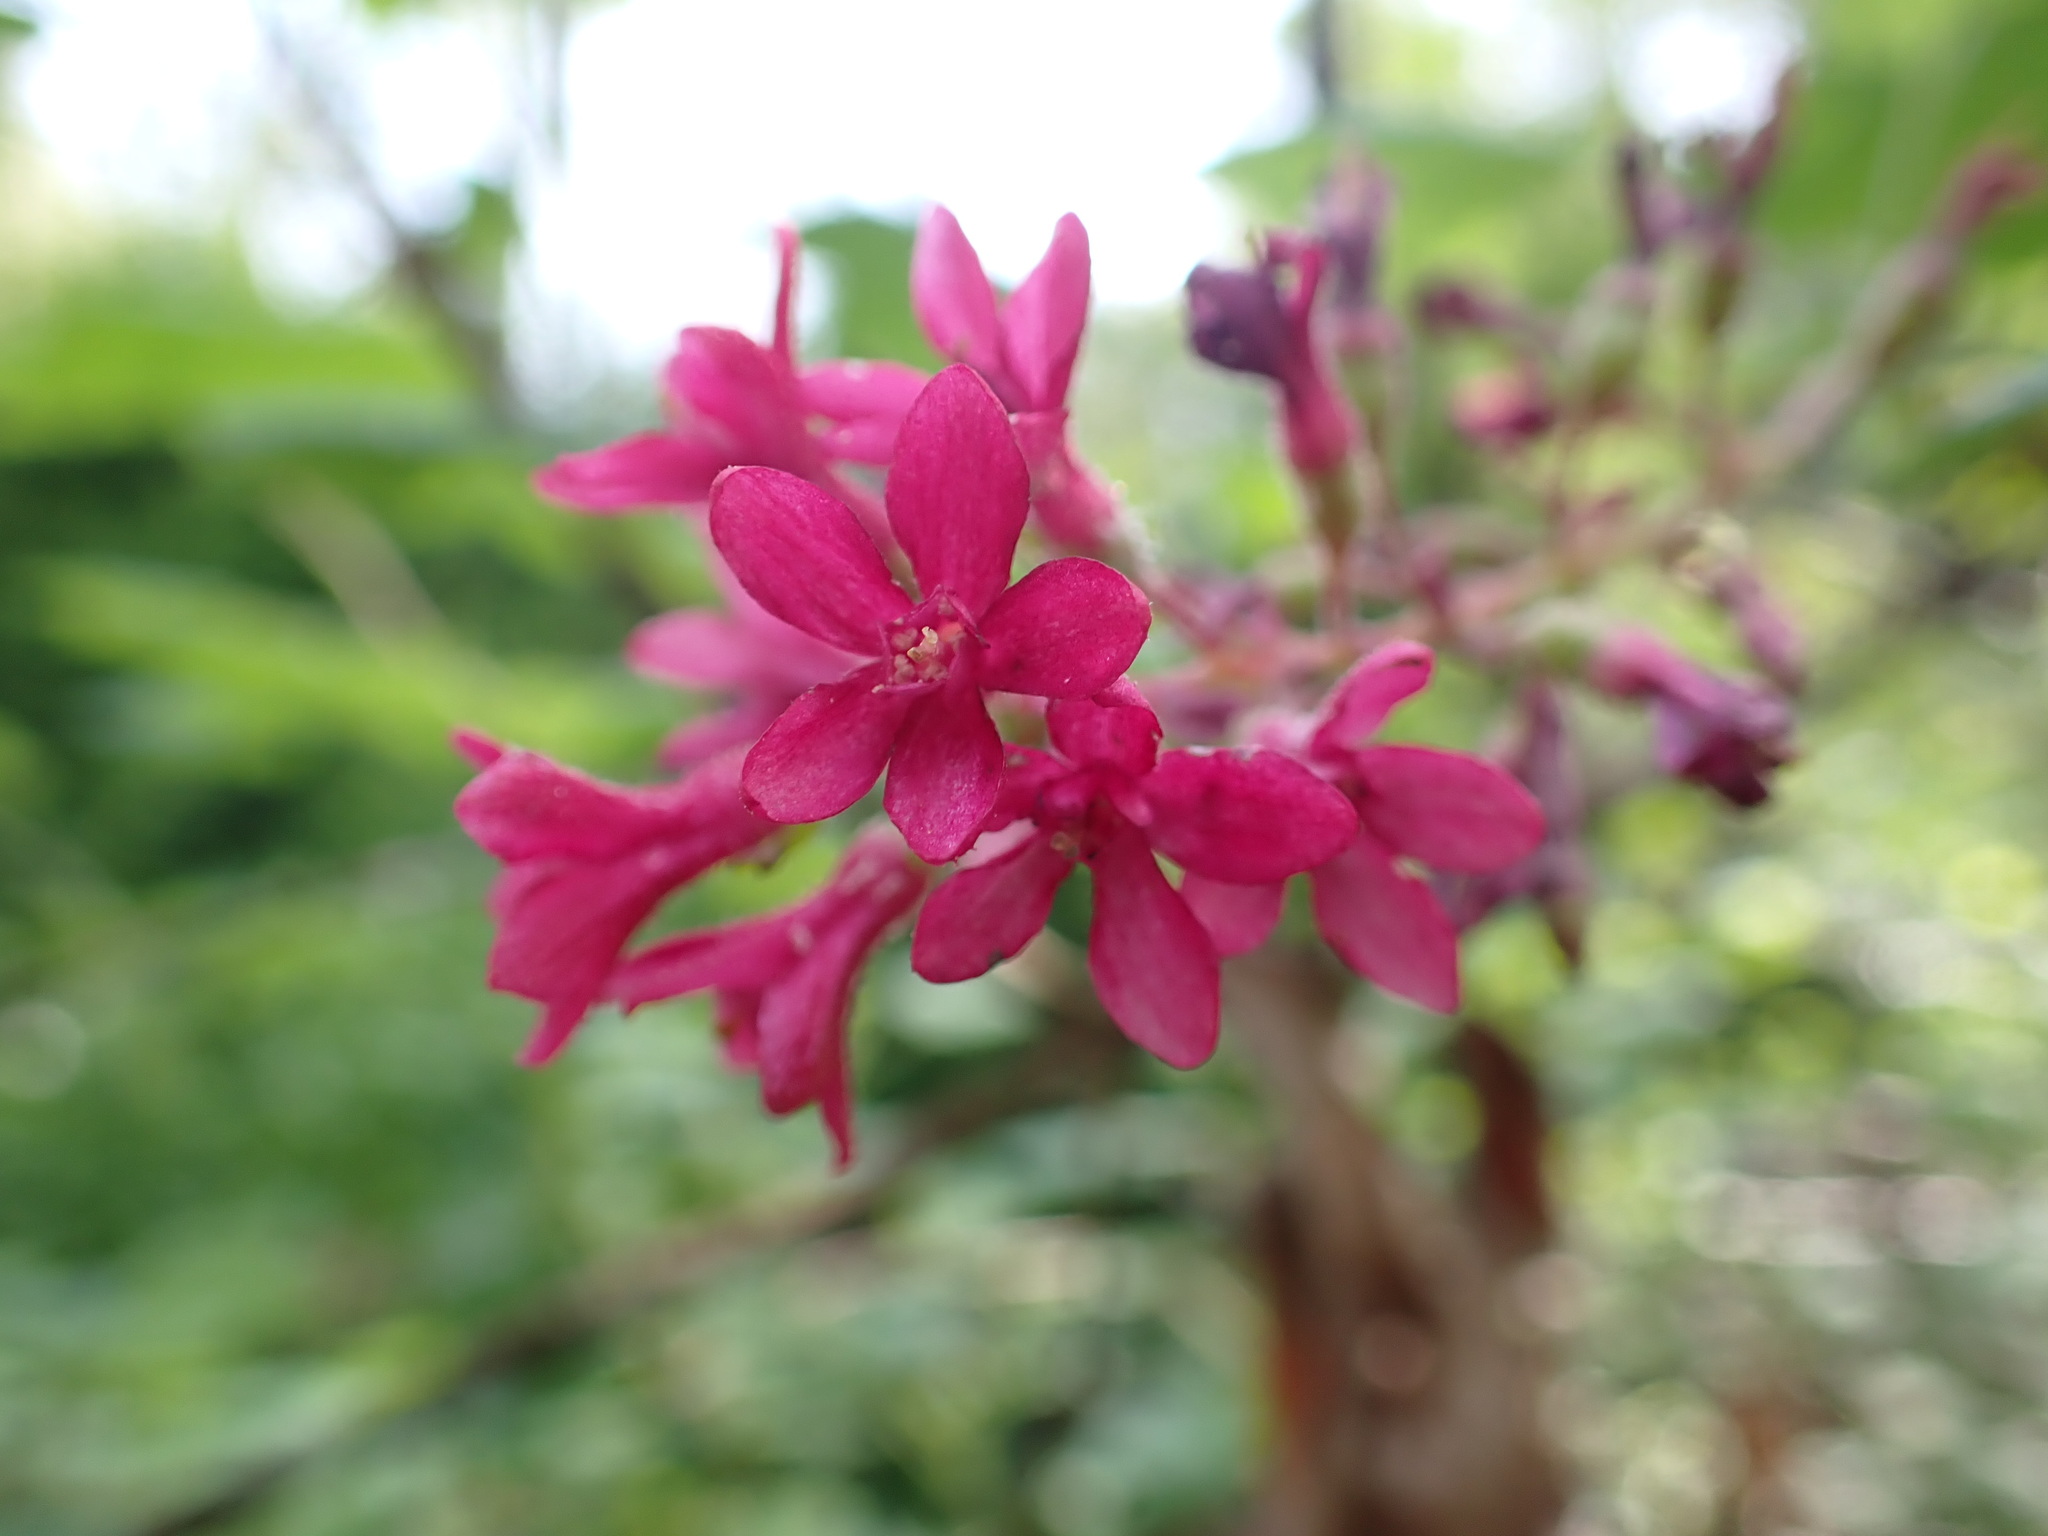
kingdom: Plantae
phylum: Tracheophyta
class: Magnoliopsida
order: Saxifragales
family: Grossulariaceae
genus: Ribes
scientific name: Ribes sanguineum
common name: Flowering currant
